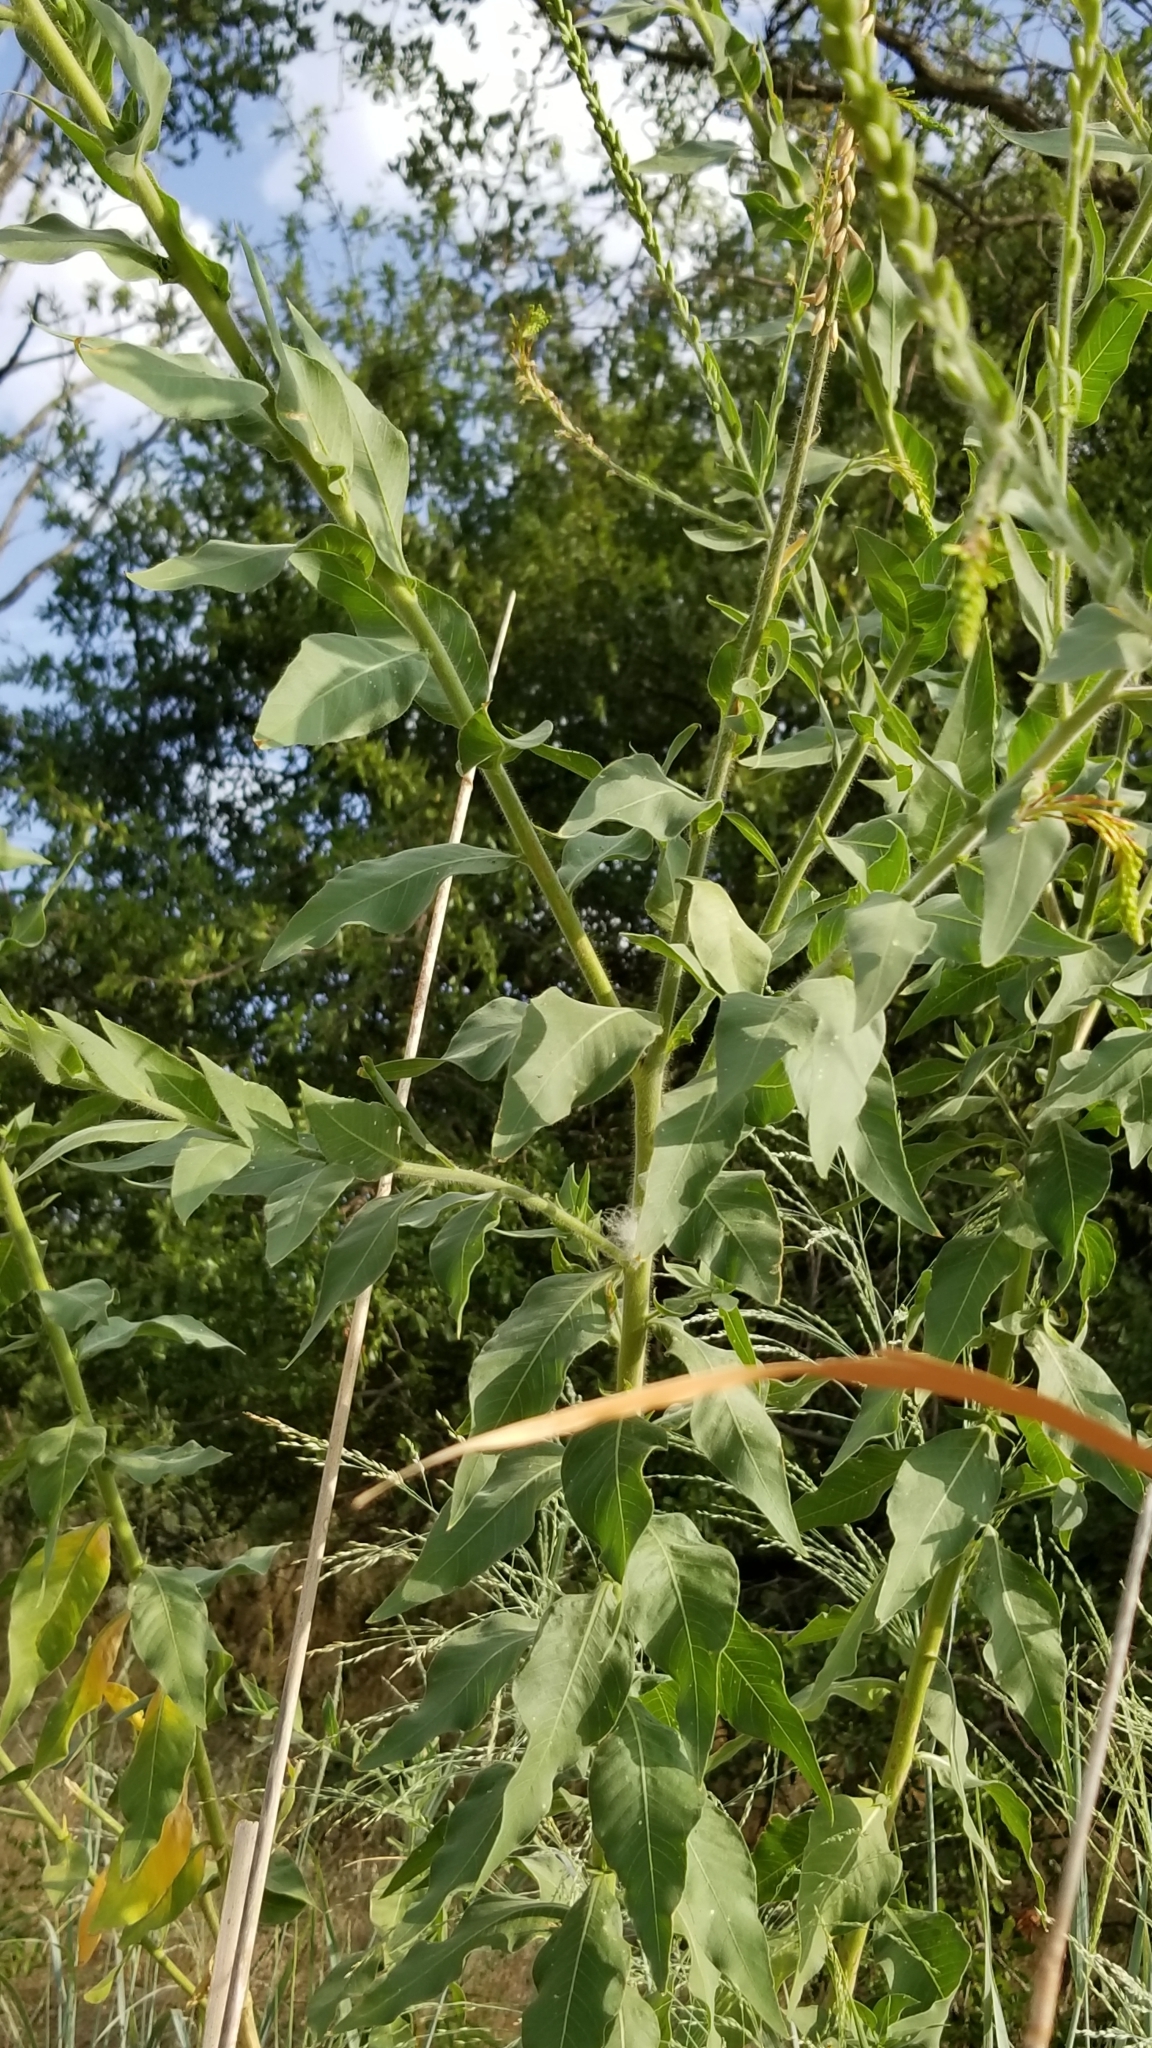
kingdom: Plantae
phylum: Tracheophyta
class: Magnoliopsida
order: Myrtales
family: Onagraceae
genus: Oenothera
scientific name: Oenothera curtiflora
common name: Velvetweed
